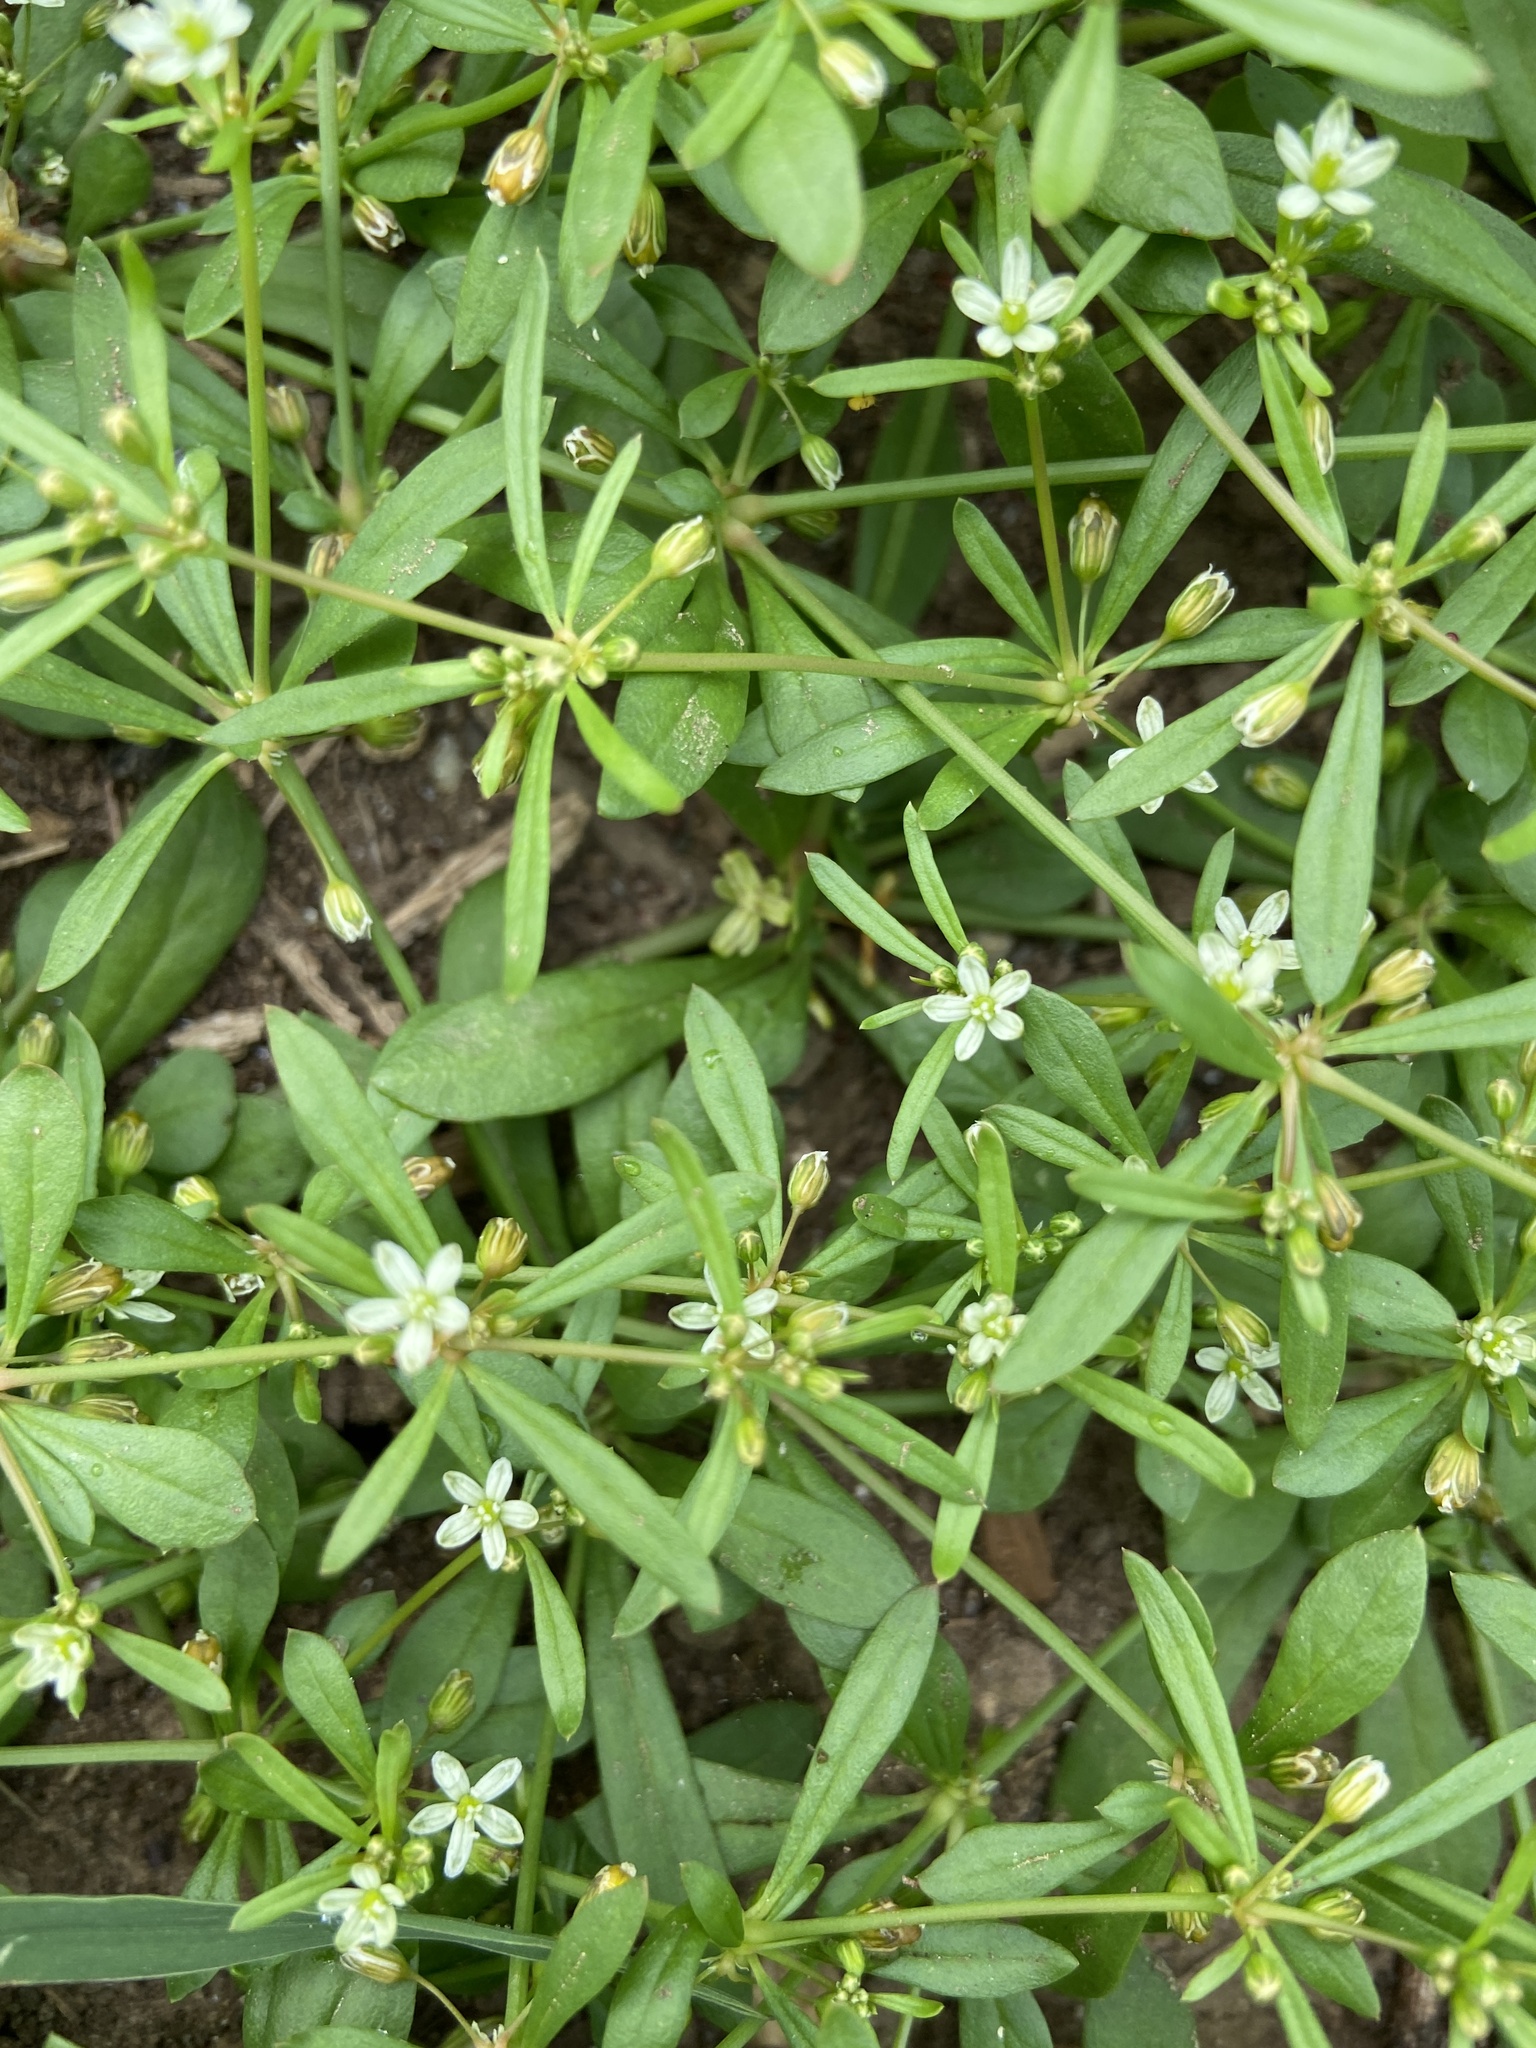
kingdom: Plantae
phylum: Tracheophyta
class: Magnoliopsida
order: Caryophyllales
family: Molluginaceae
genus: Mollugo
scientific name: Mollugo verticillata
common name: Green carpetweed
